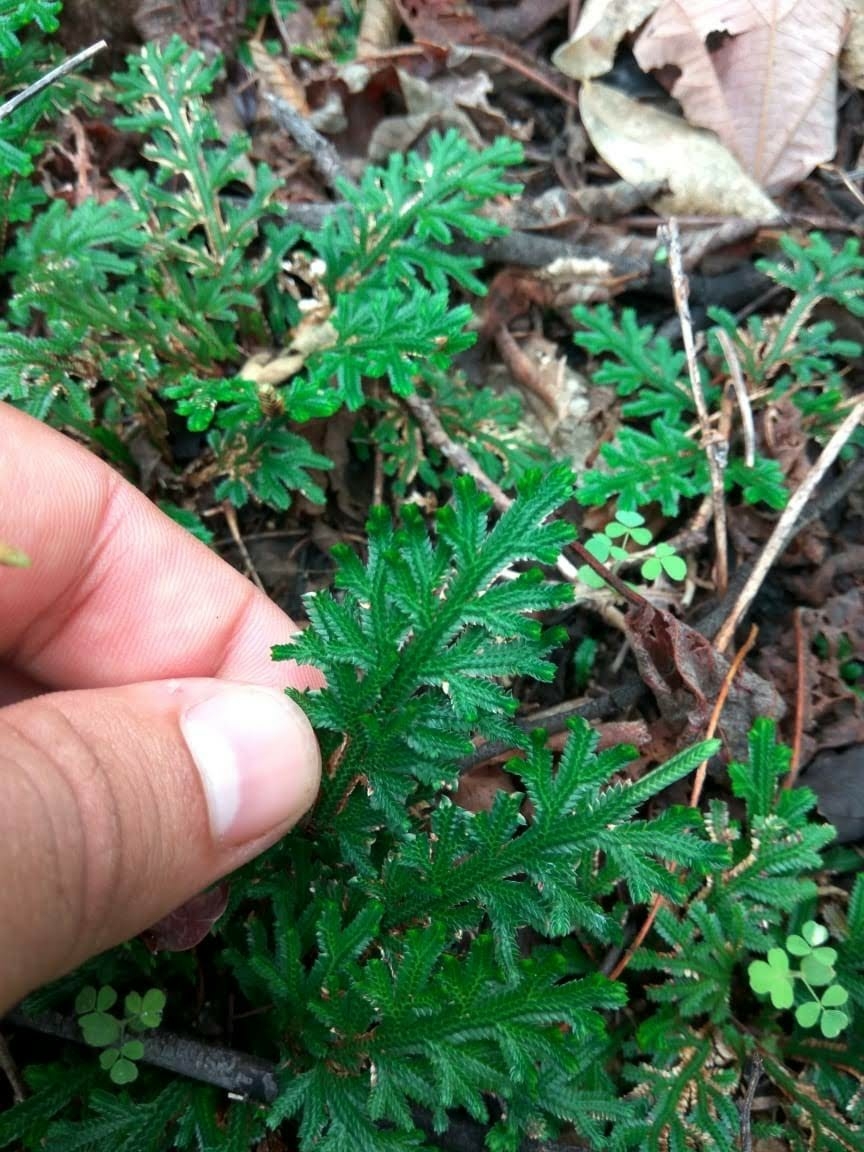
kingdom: Plantae
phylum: Tracheophyta
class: Lycopodiopsida
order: Selaginellales
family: Selaginellaceae
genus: Selaginella
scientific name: Selaginella convoluta
